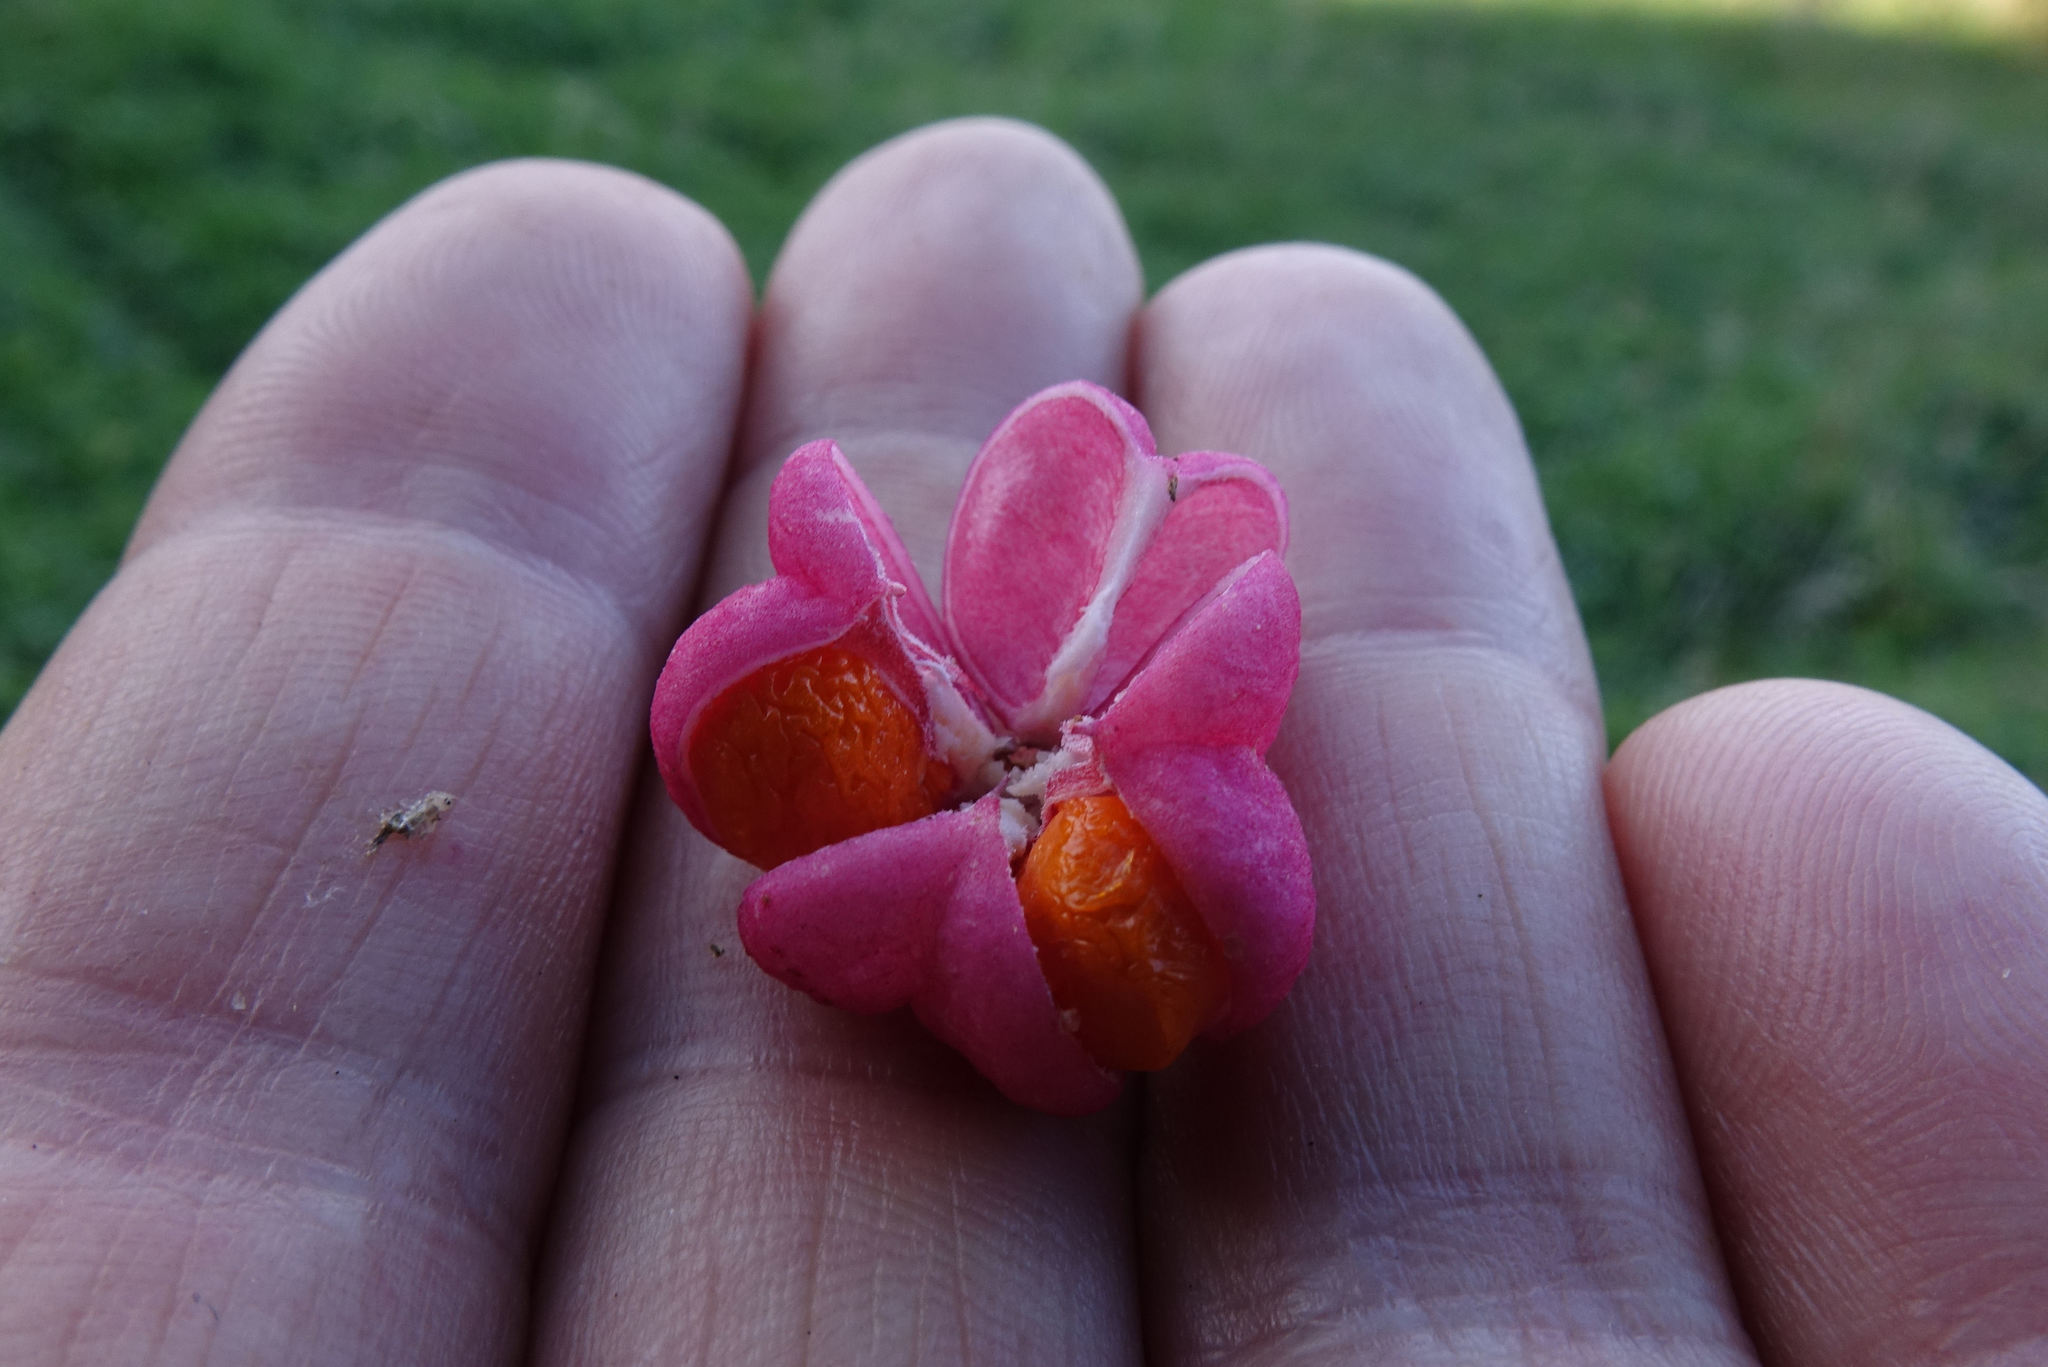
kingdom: Plantae
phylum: Tracheophyta
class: Magnoliopsida
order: Celastrales
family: Celastraceae
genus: Euonymus
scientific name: Euonymus europaeus
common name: Spindle
